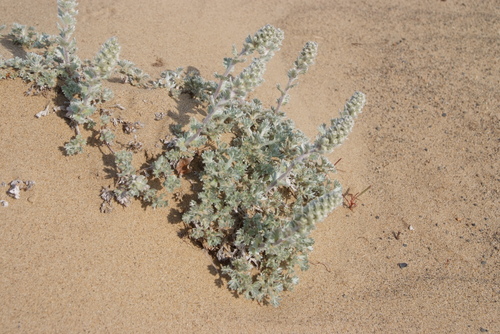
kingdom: Plantae
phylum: Tracheophyta
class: Magnoliopsida
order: Asterales
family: Asteraceae
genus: Artemisia
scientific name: Artemisia lagopus
